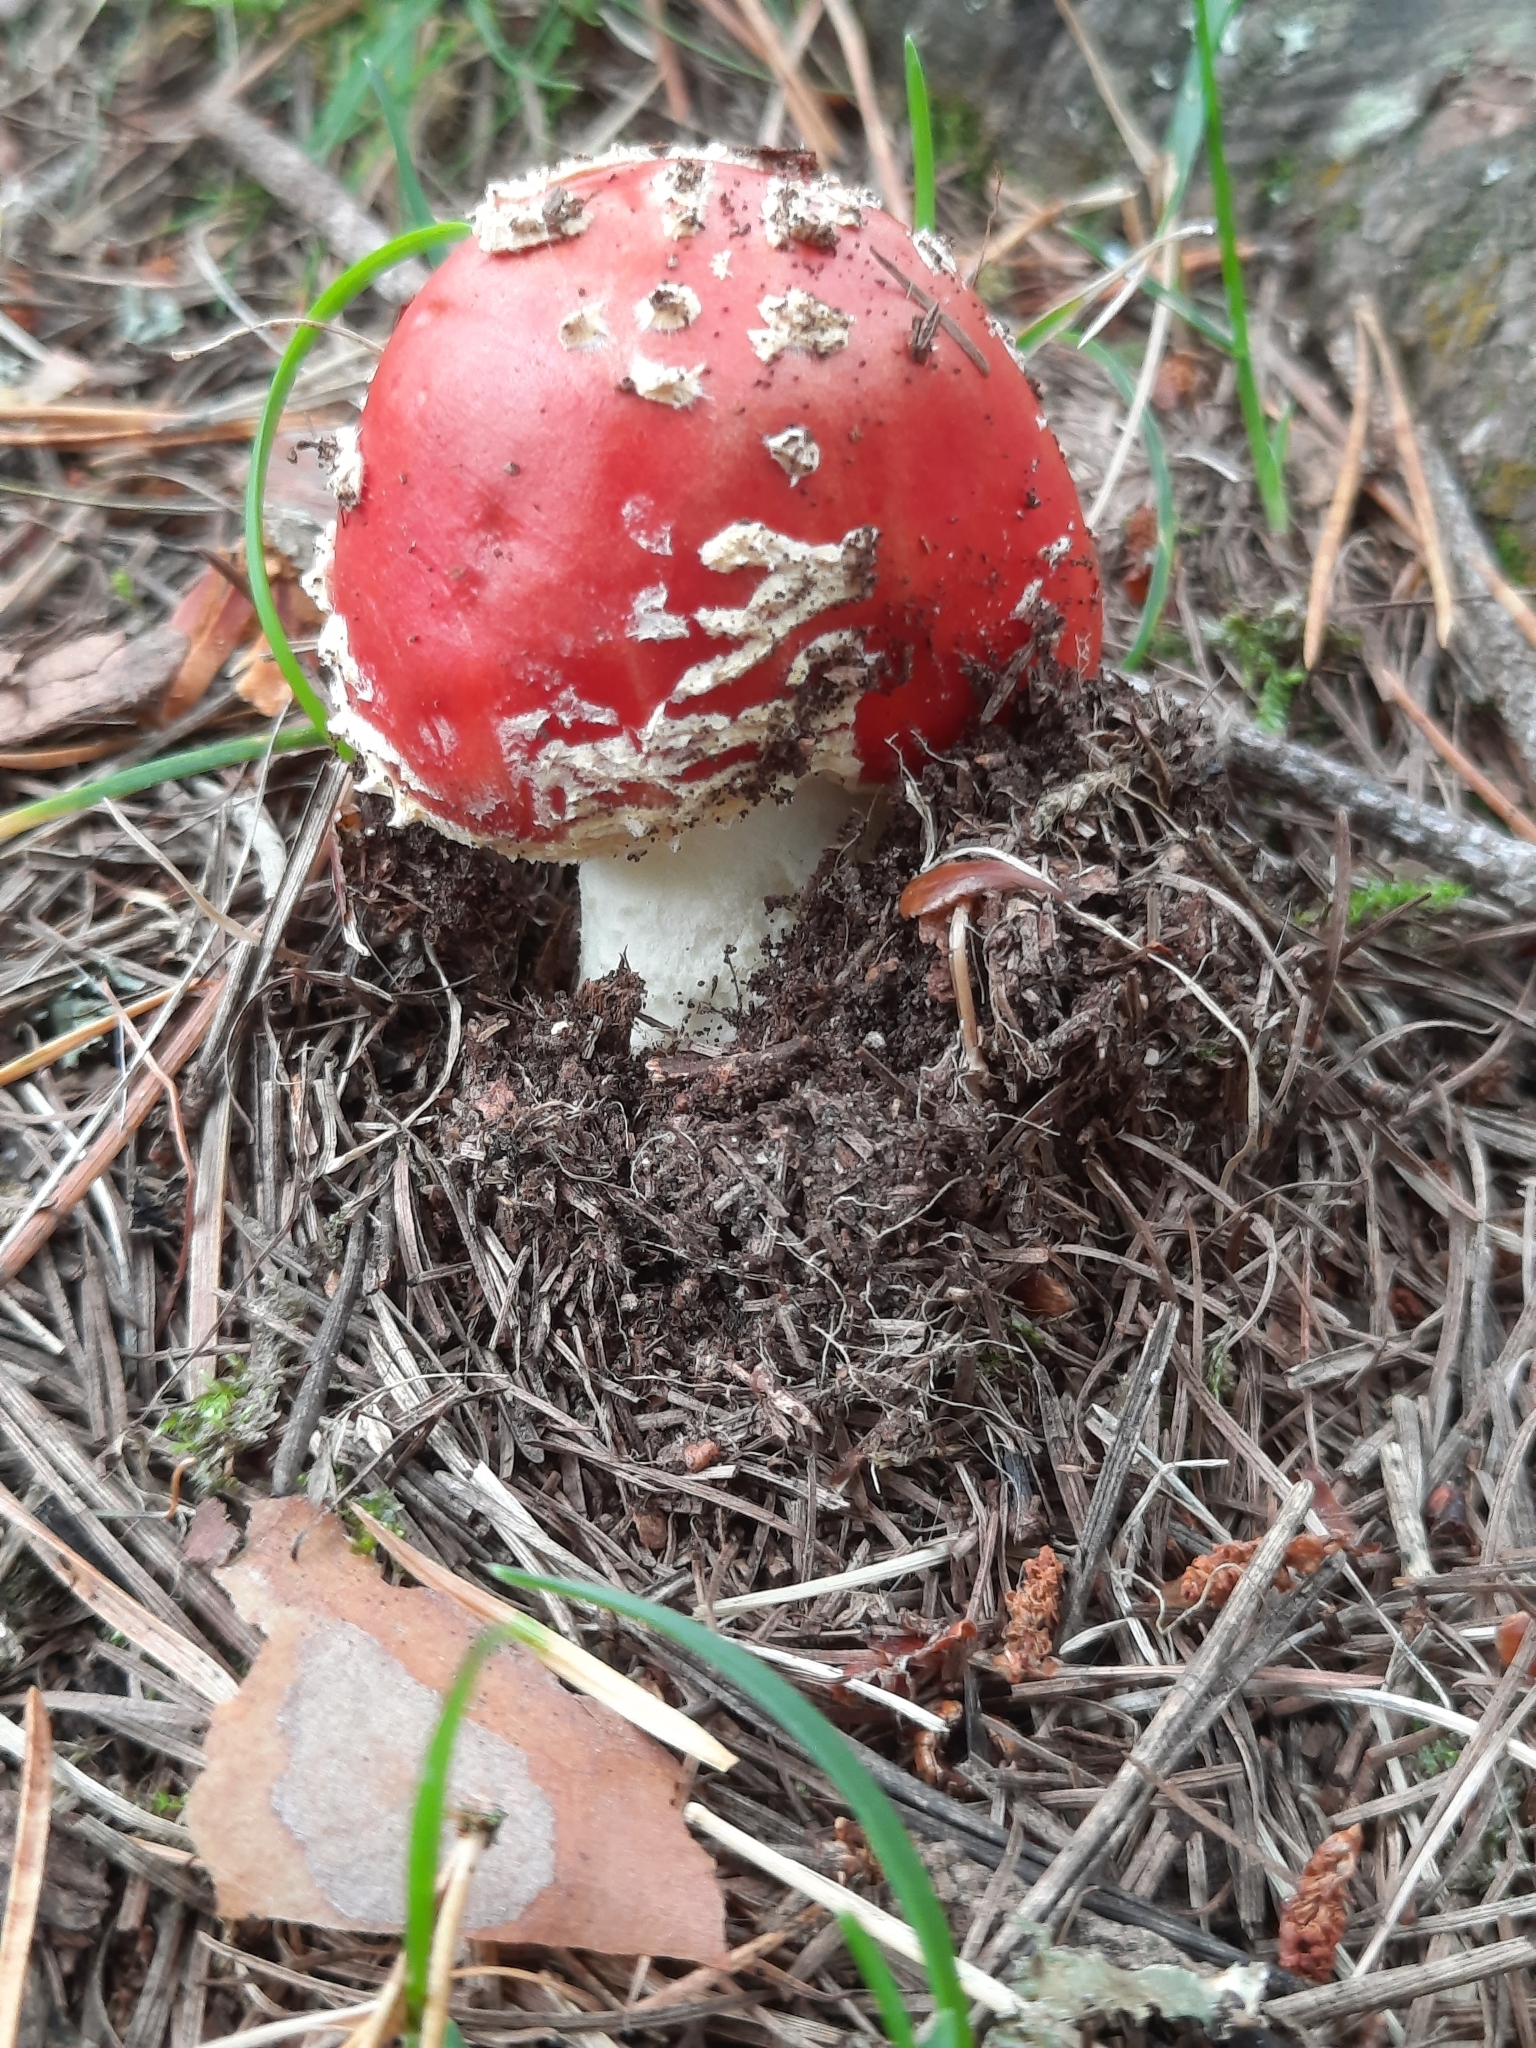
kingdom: Fungi
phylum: Basidiomycota
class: Agaricomycetes
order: Agaricales
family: Amanitaceae
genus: Amanita
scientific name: Amanita muscaria
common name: Fly agaric
